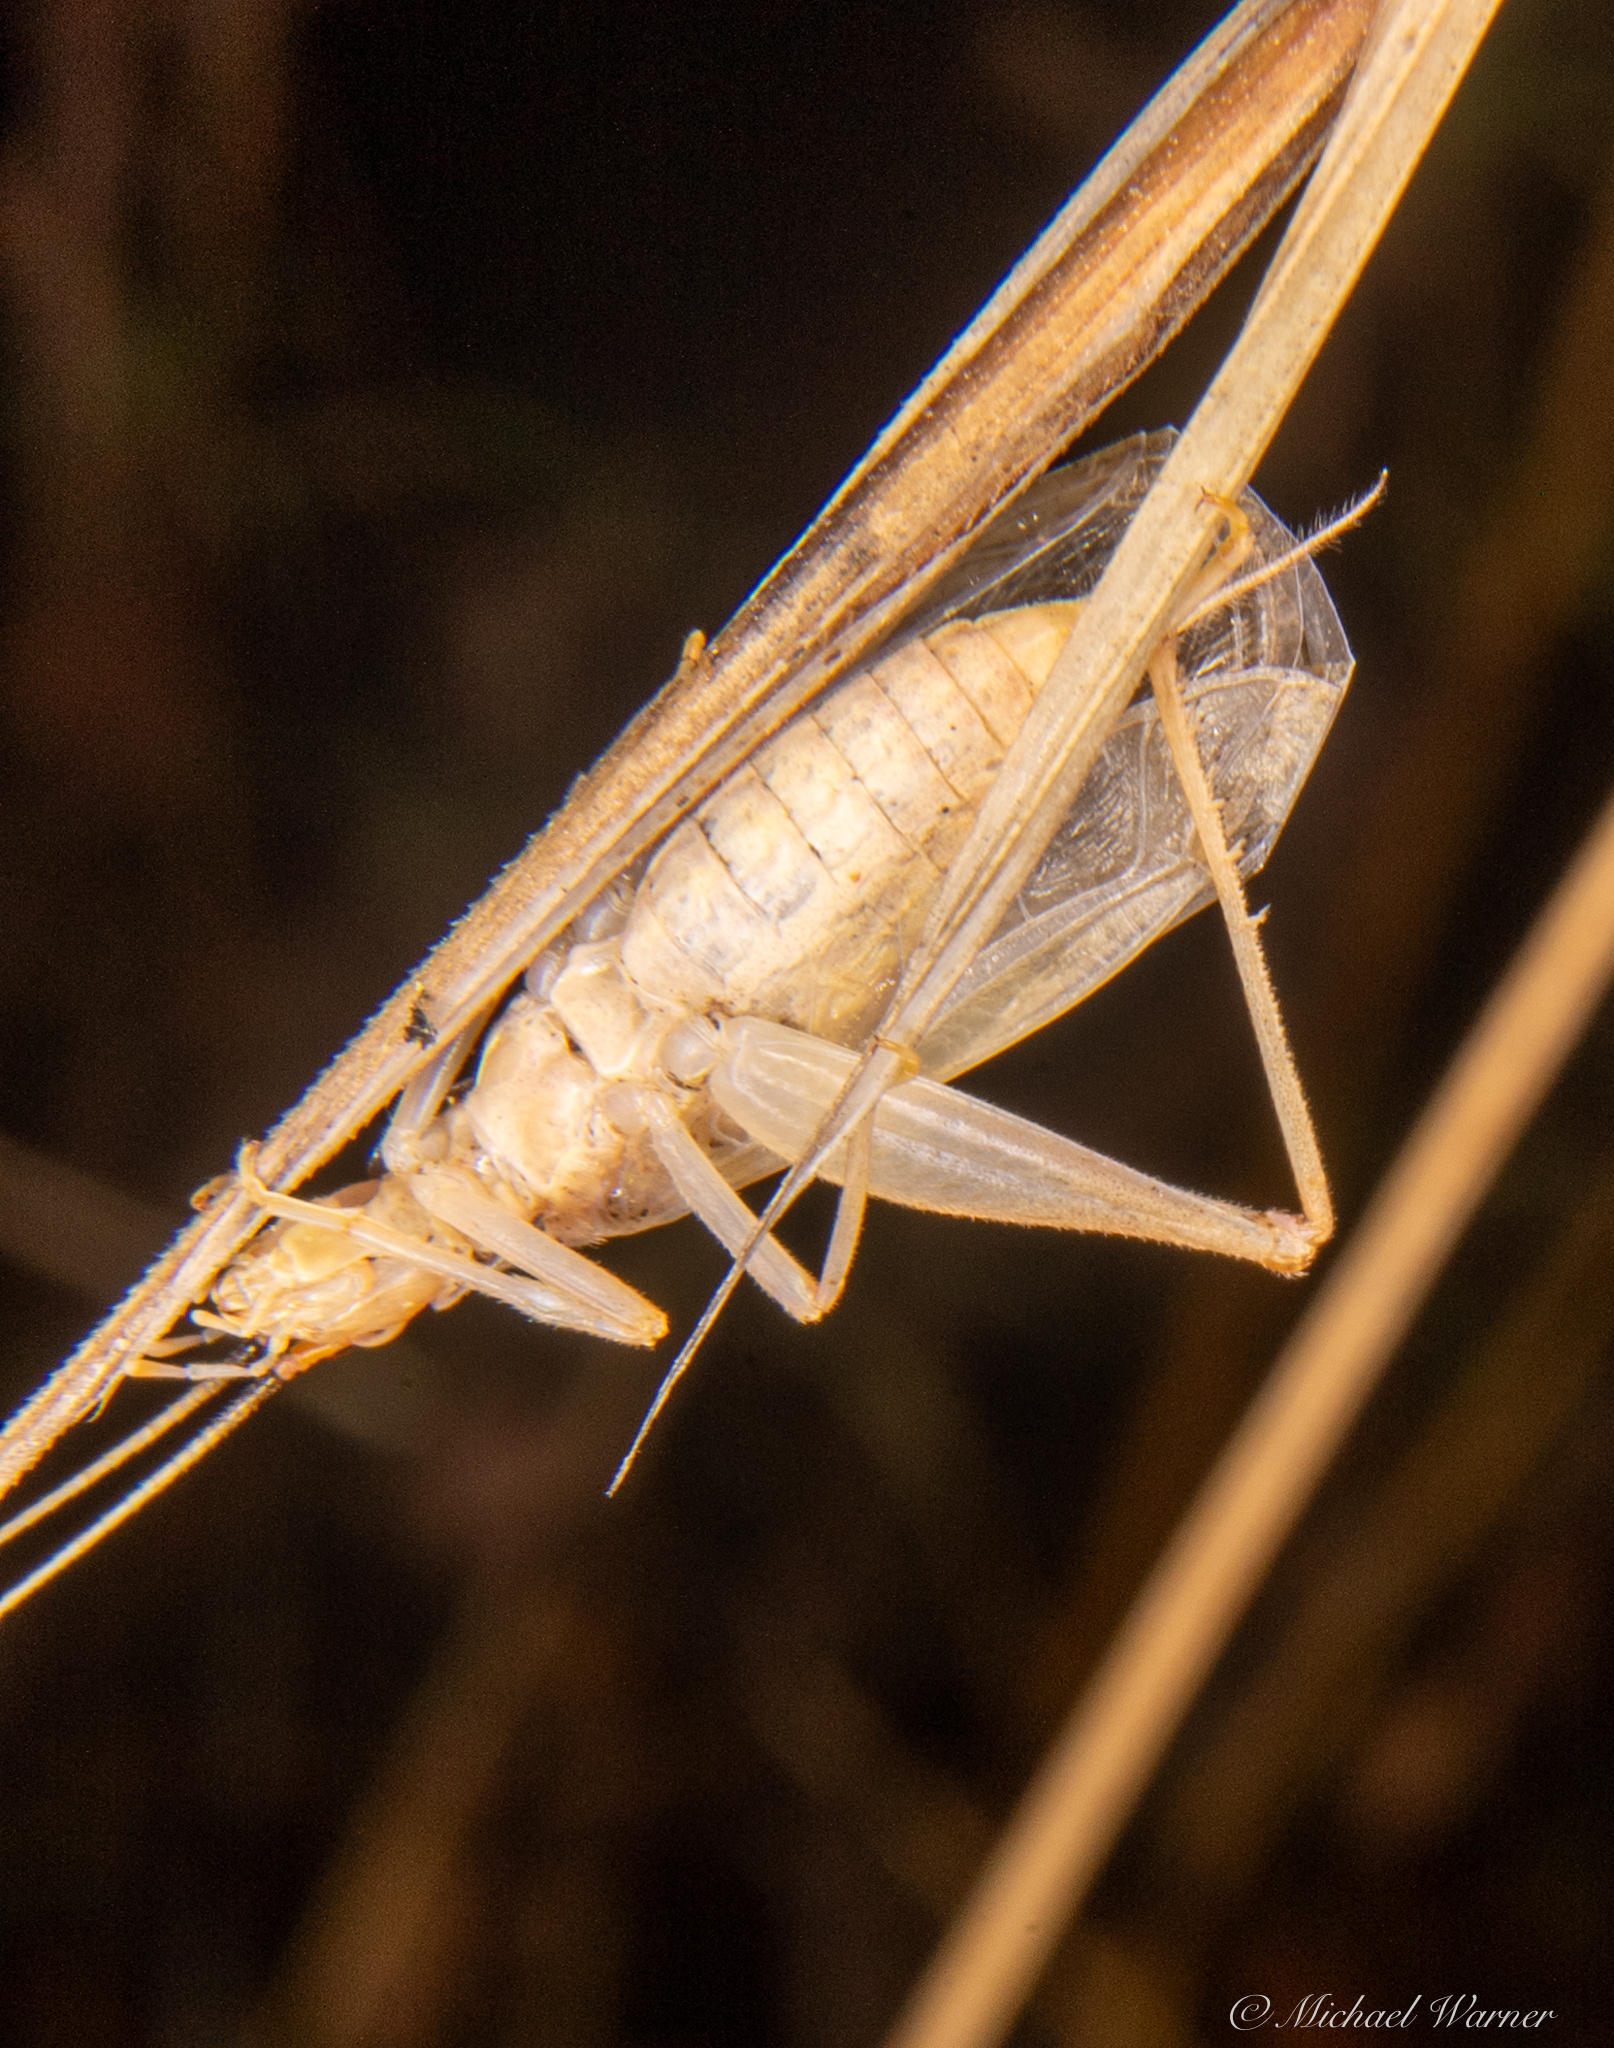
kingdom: Animalia
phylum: Arthropoda
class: Insecta
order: Orthoptera
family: Gryllidae
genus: Oecanthus
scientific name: Oecanthus californicus
